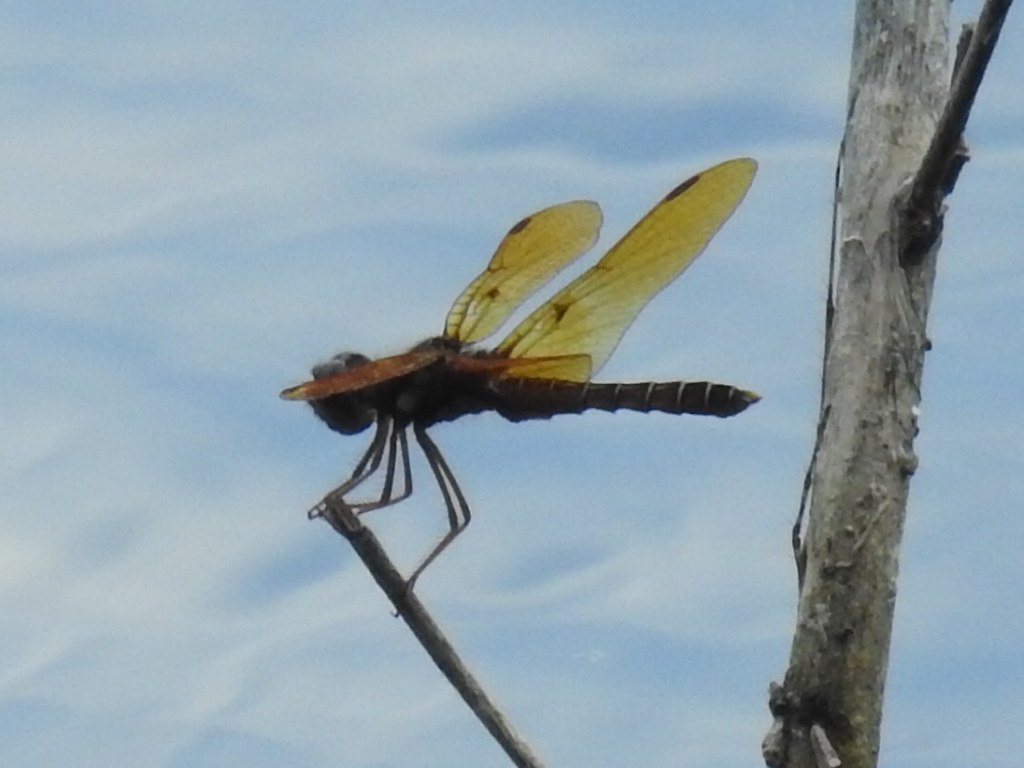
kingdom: Animalia
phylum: Arthropoda
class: Insecta
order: Odonata
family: Libellulidae
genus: Perithemis
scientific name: Perithemis tenera
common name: Eastern amberwing
